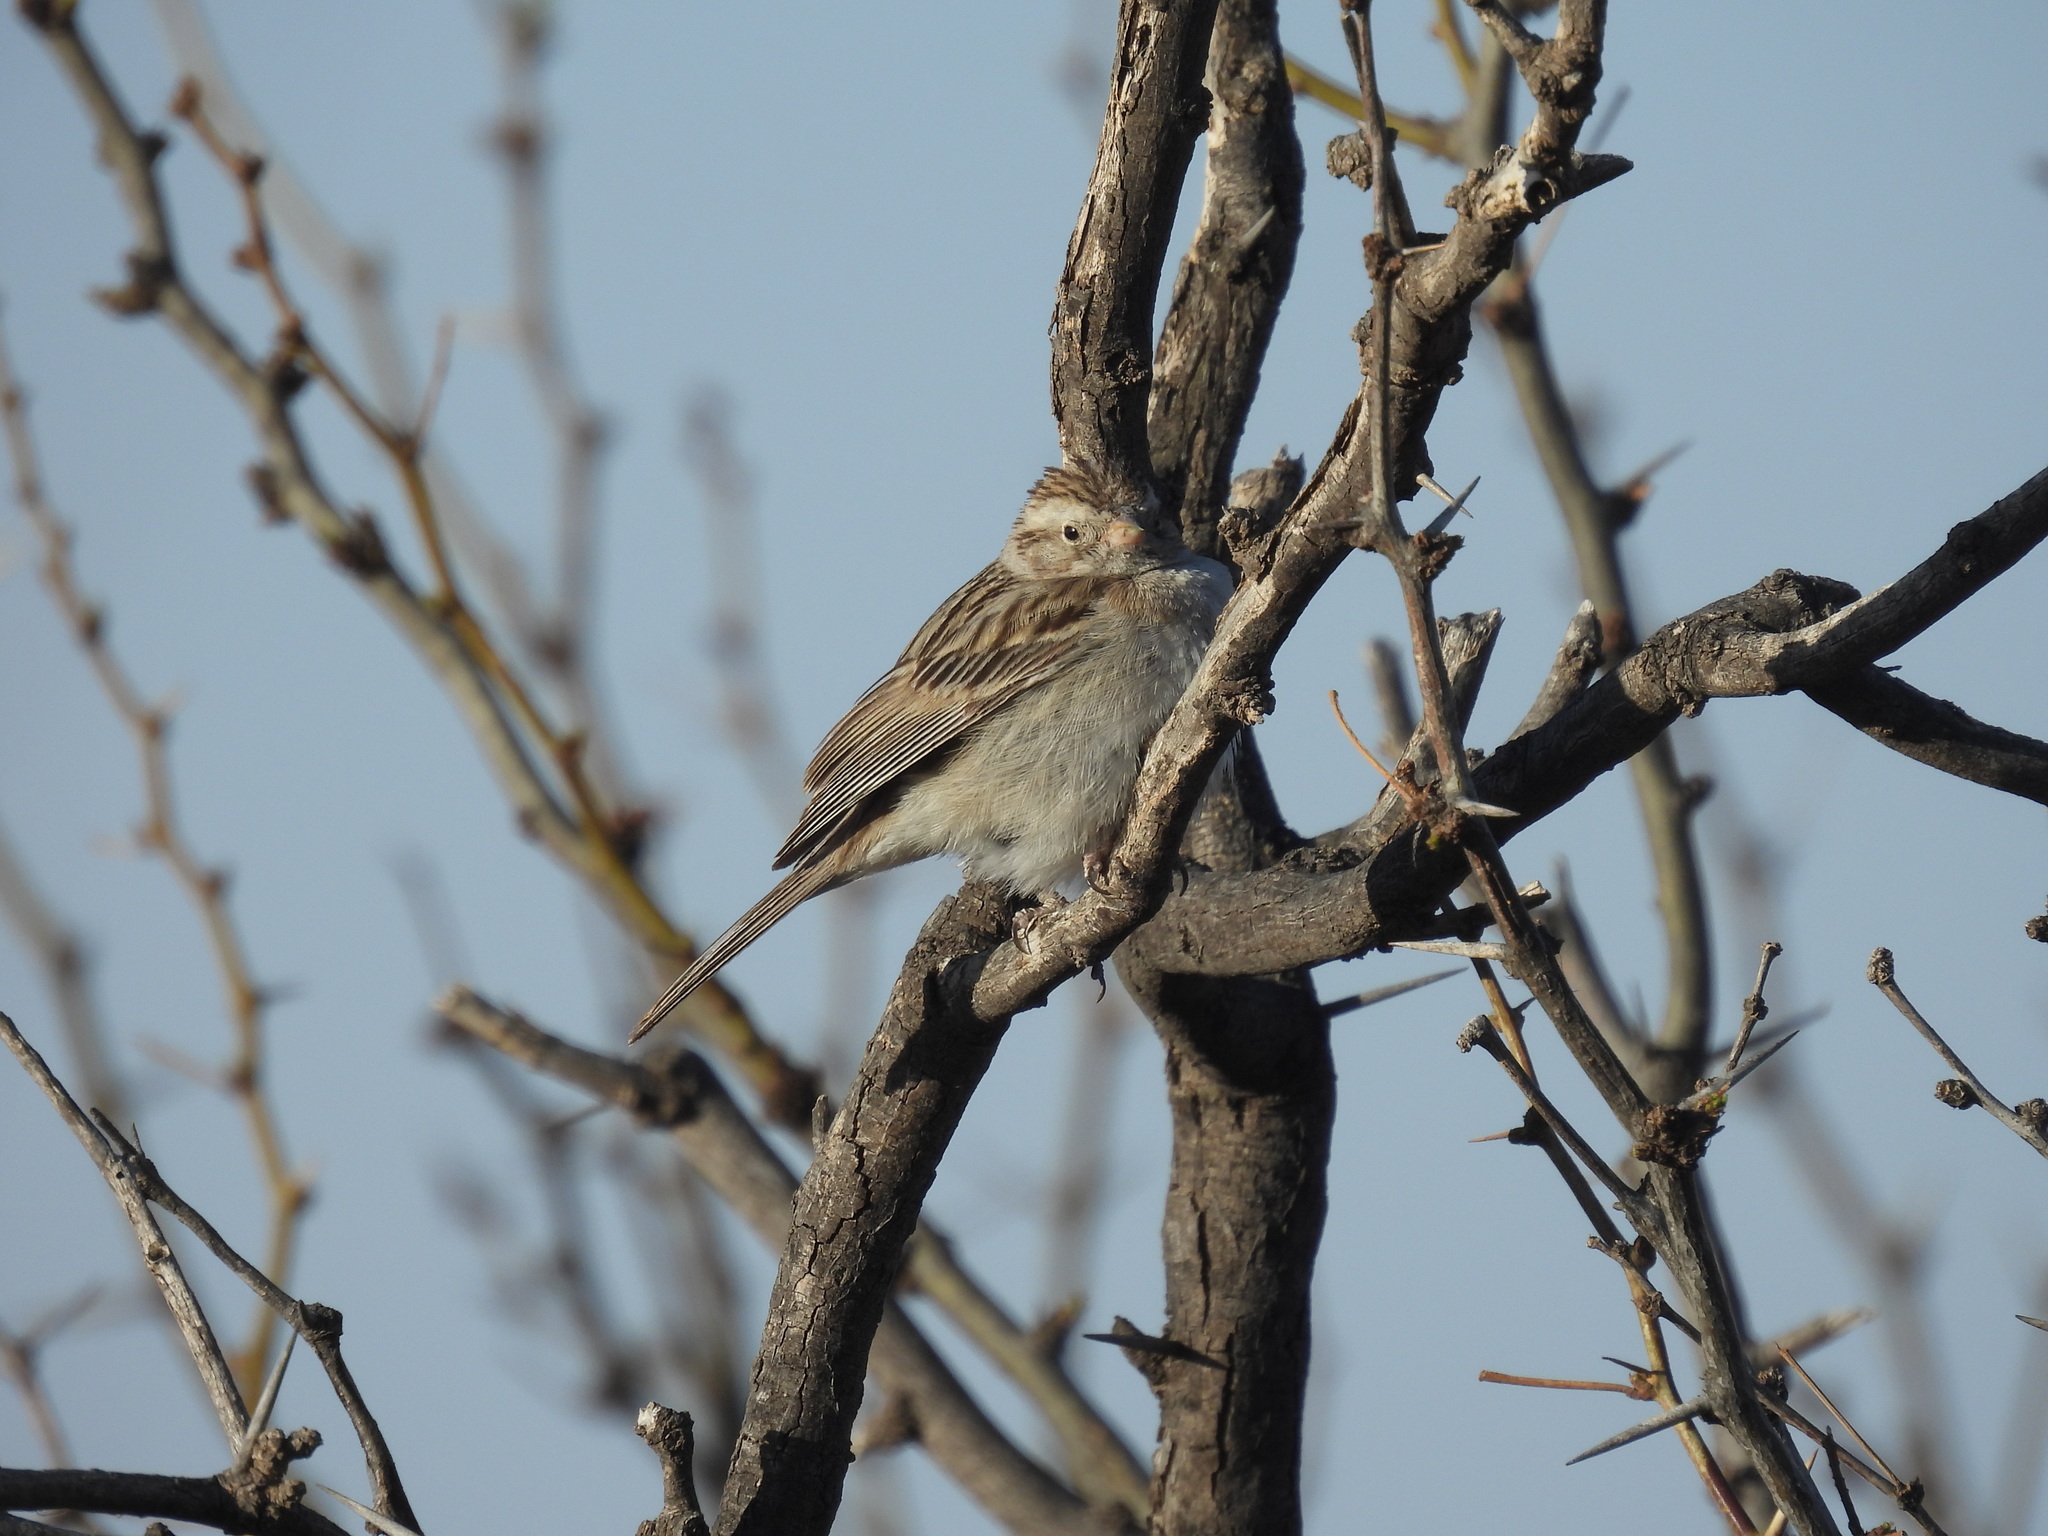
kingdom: Animalia
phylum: Chordata
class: Aves
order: Passeriformes
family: Passerellidae
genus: Spizella
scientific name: Spizella breweri
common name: Brewer's sparrow
